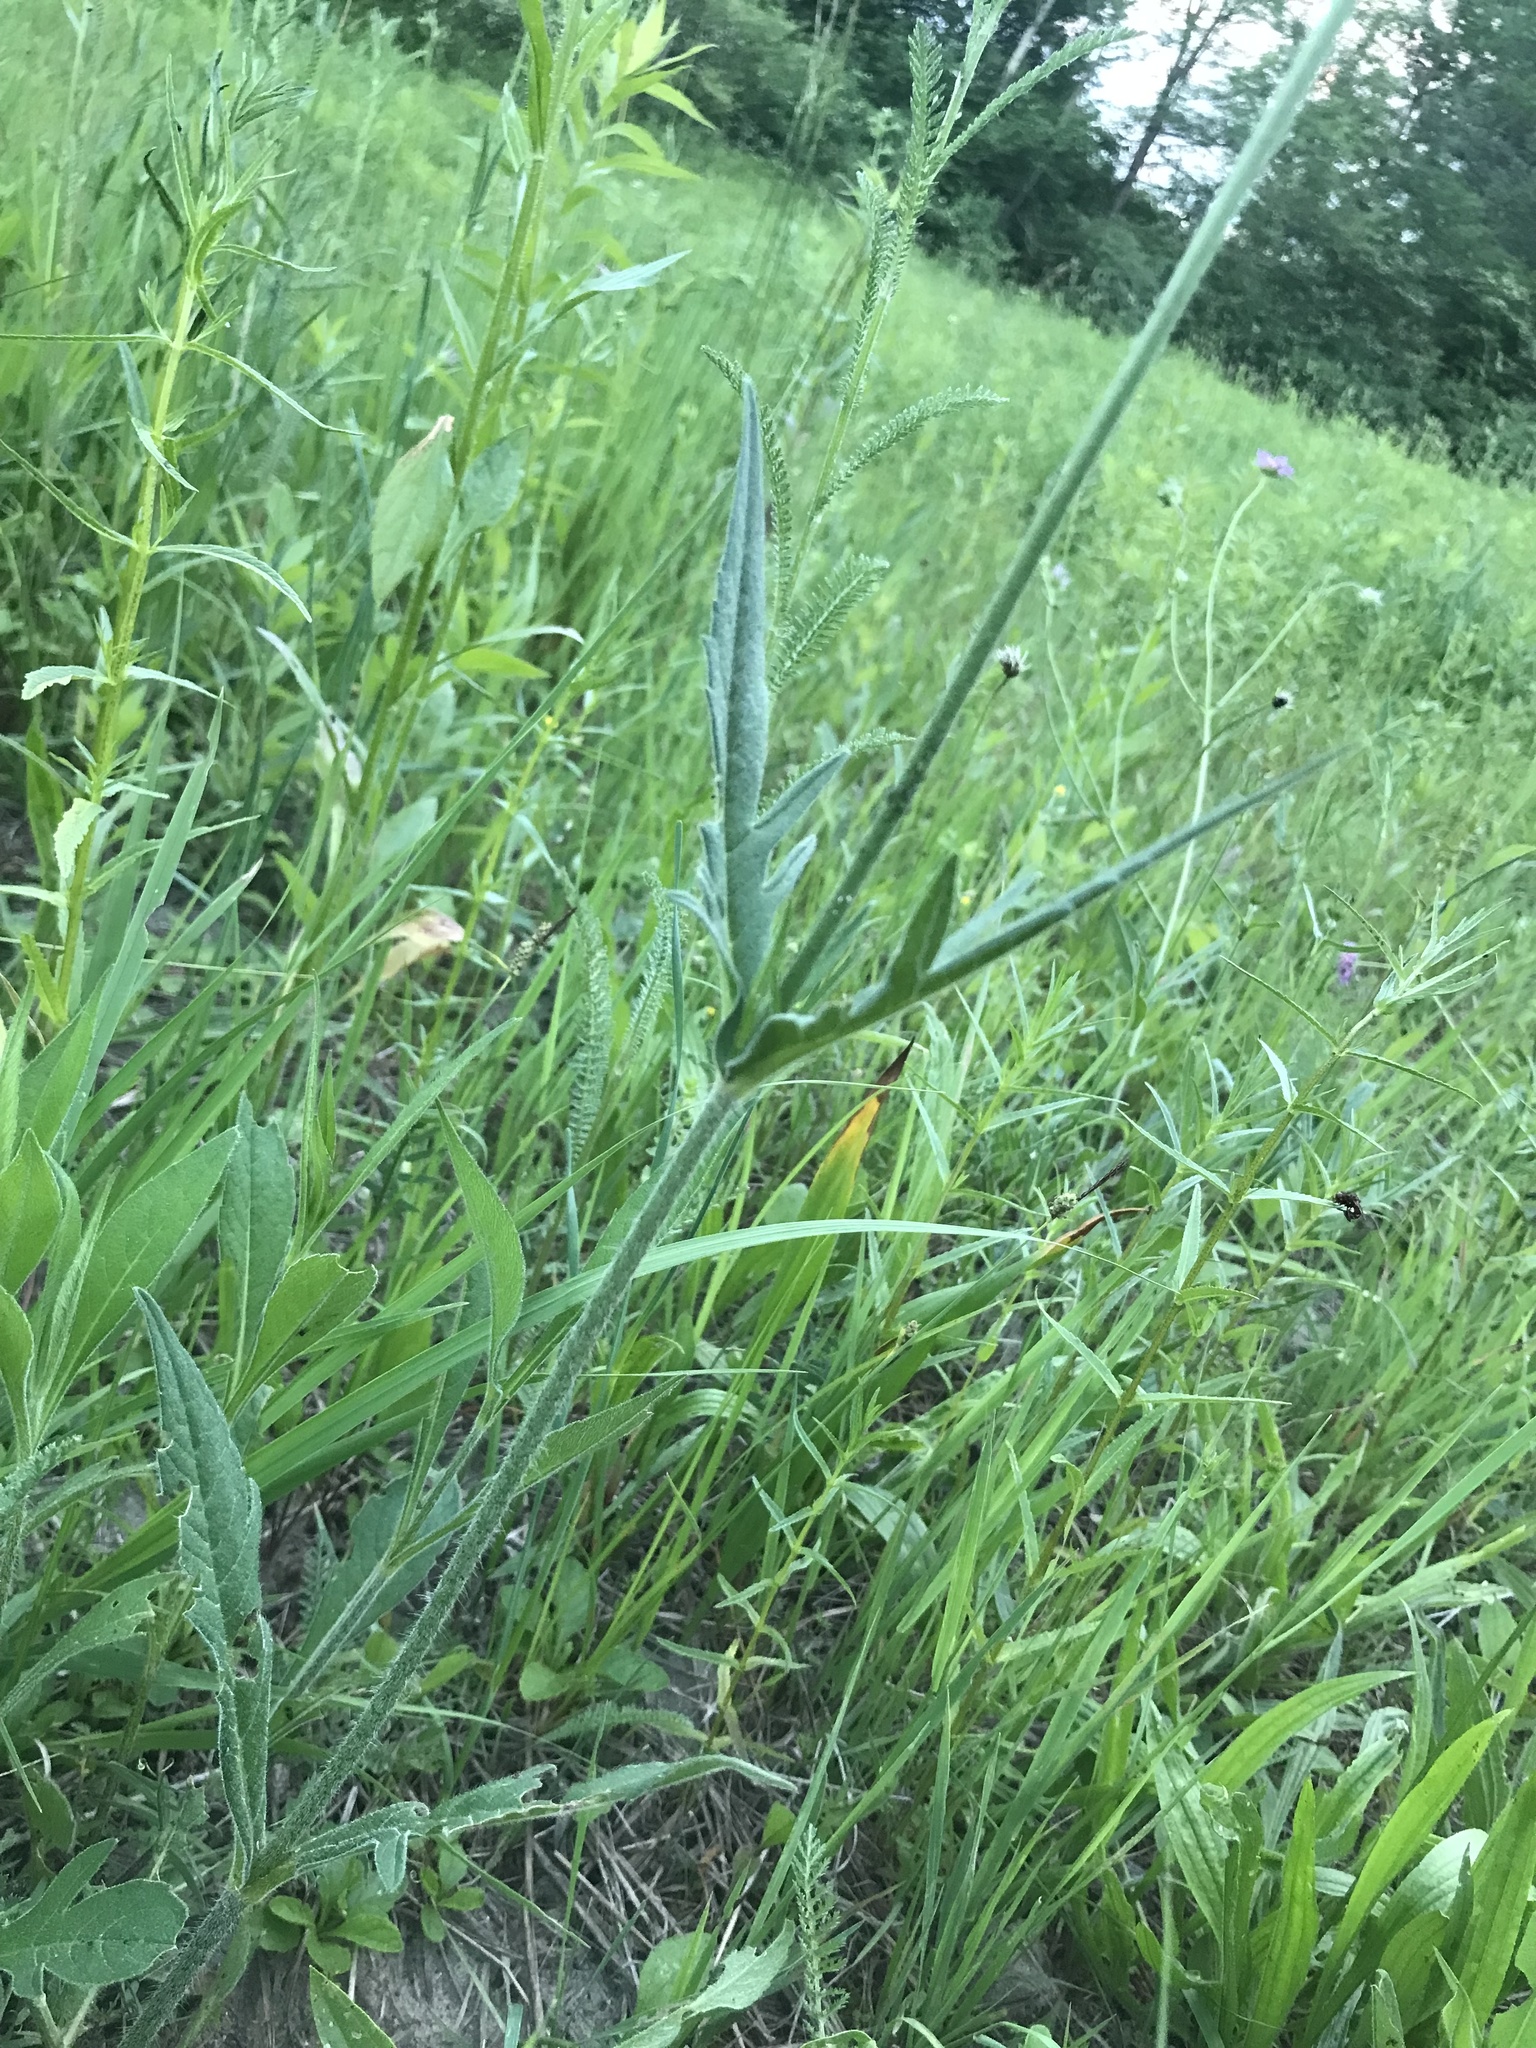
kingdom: Plantae
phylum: Tracheophyta
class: Magnoliopsida
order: Dipsacales
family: Caprifoliaceae
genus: Knautia
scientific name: Knautia arvensis
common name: Field scabiosa
